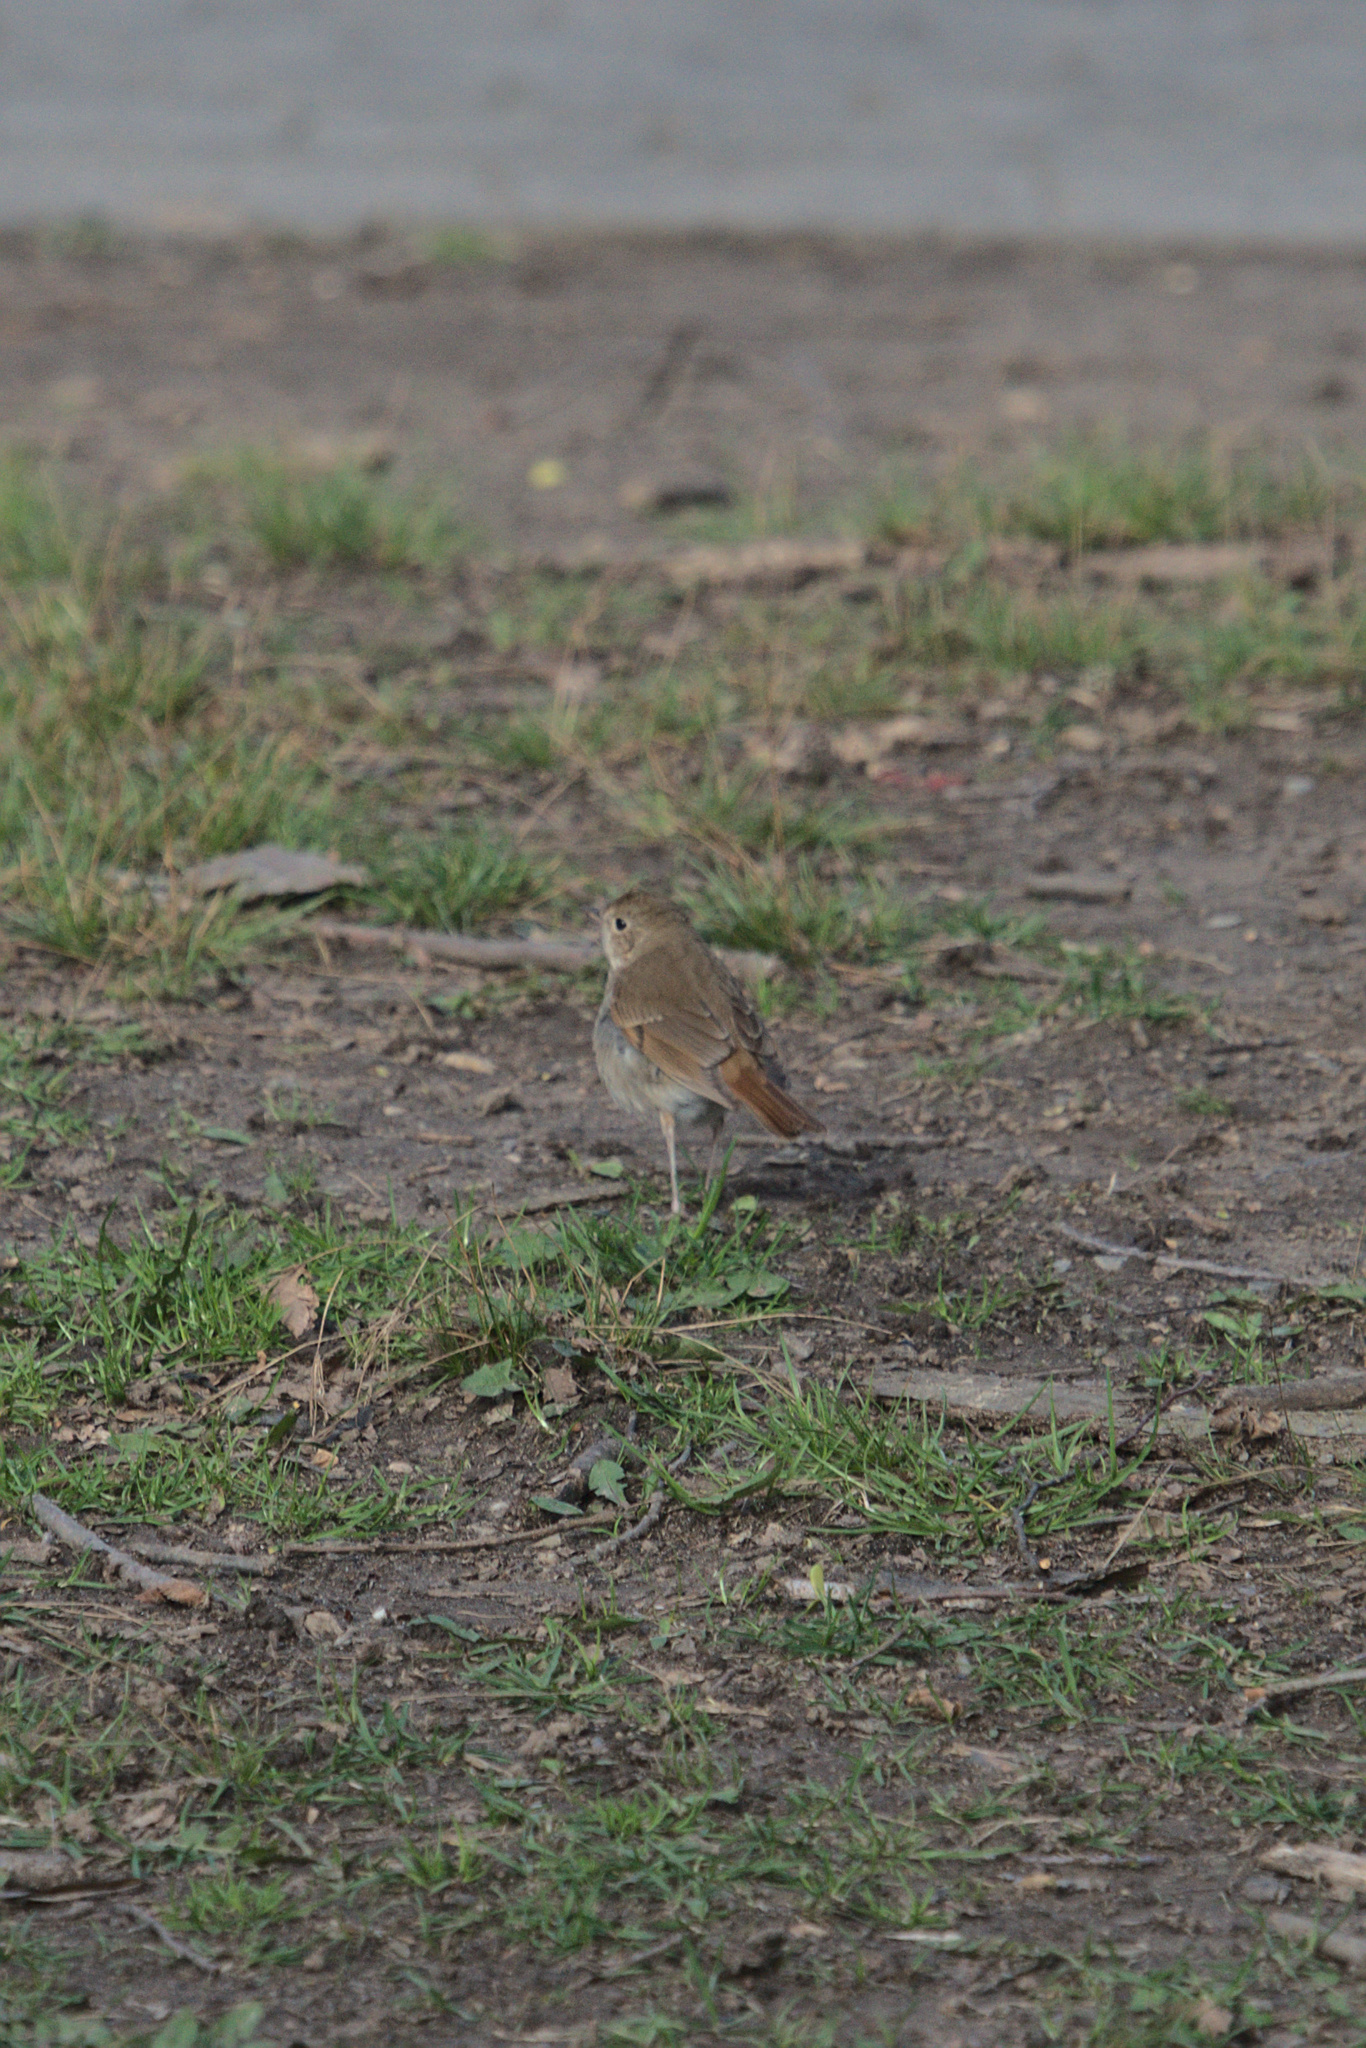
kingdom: Animalia
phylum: Chordata
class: Aves
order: Passeriformes
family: Turdidae
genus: Catharus
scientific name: Catharus guttatus
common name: Hermit thrush
